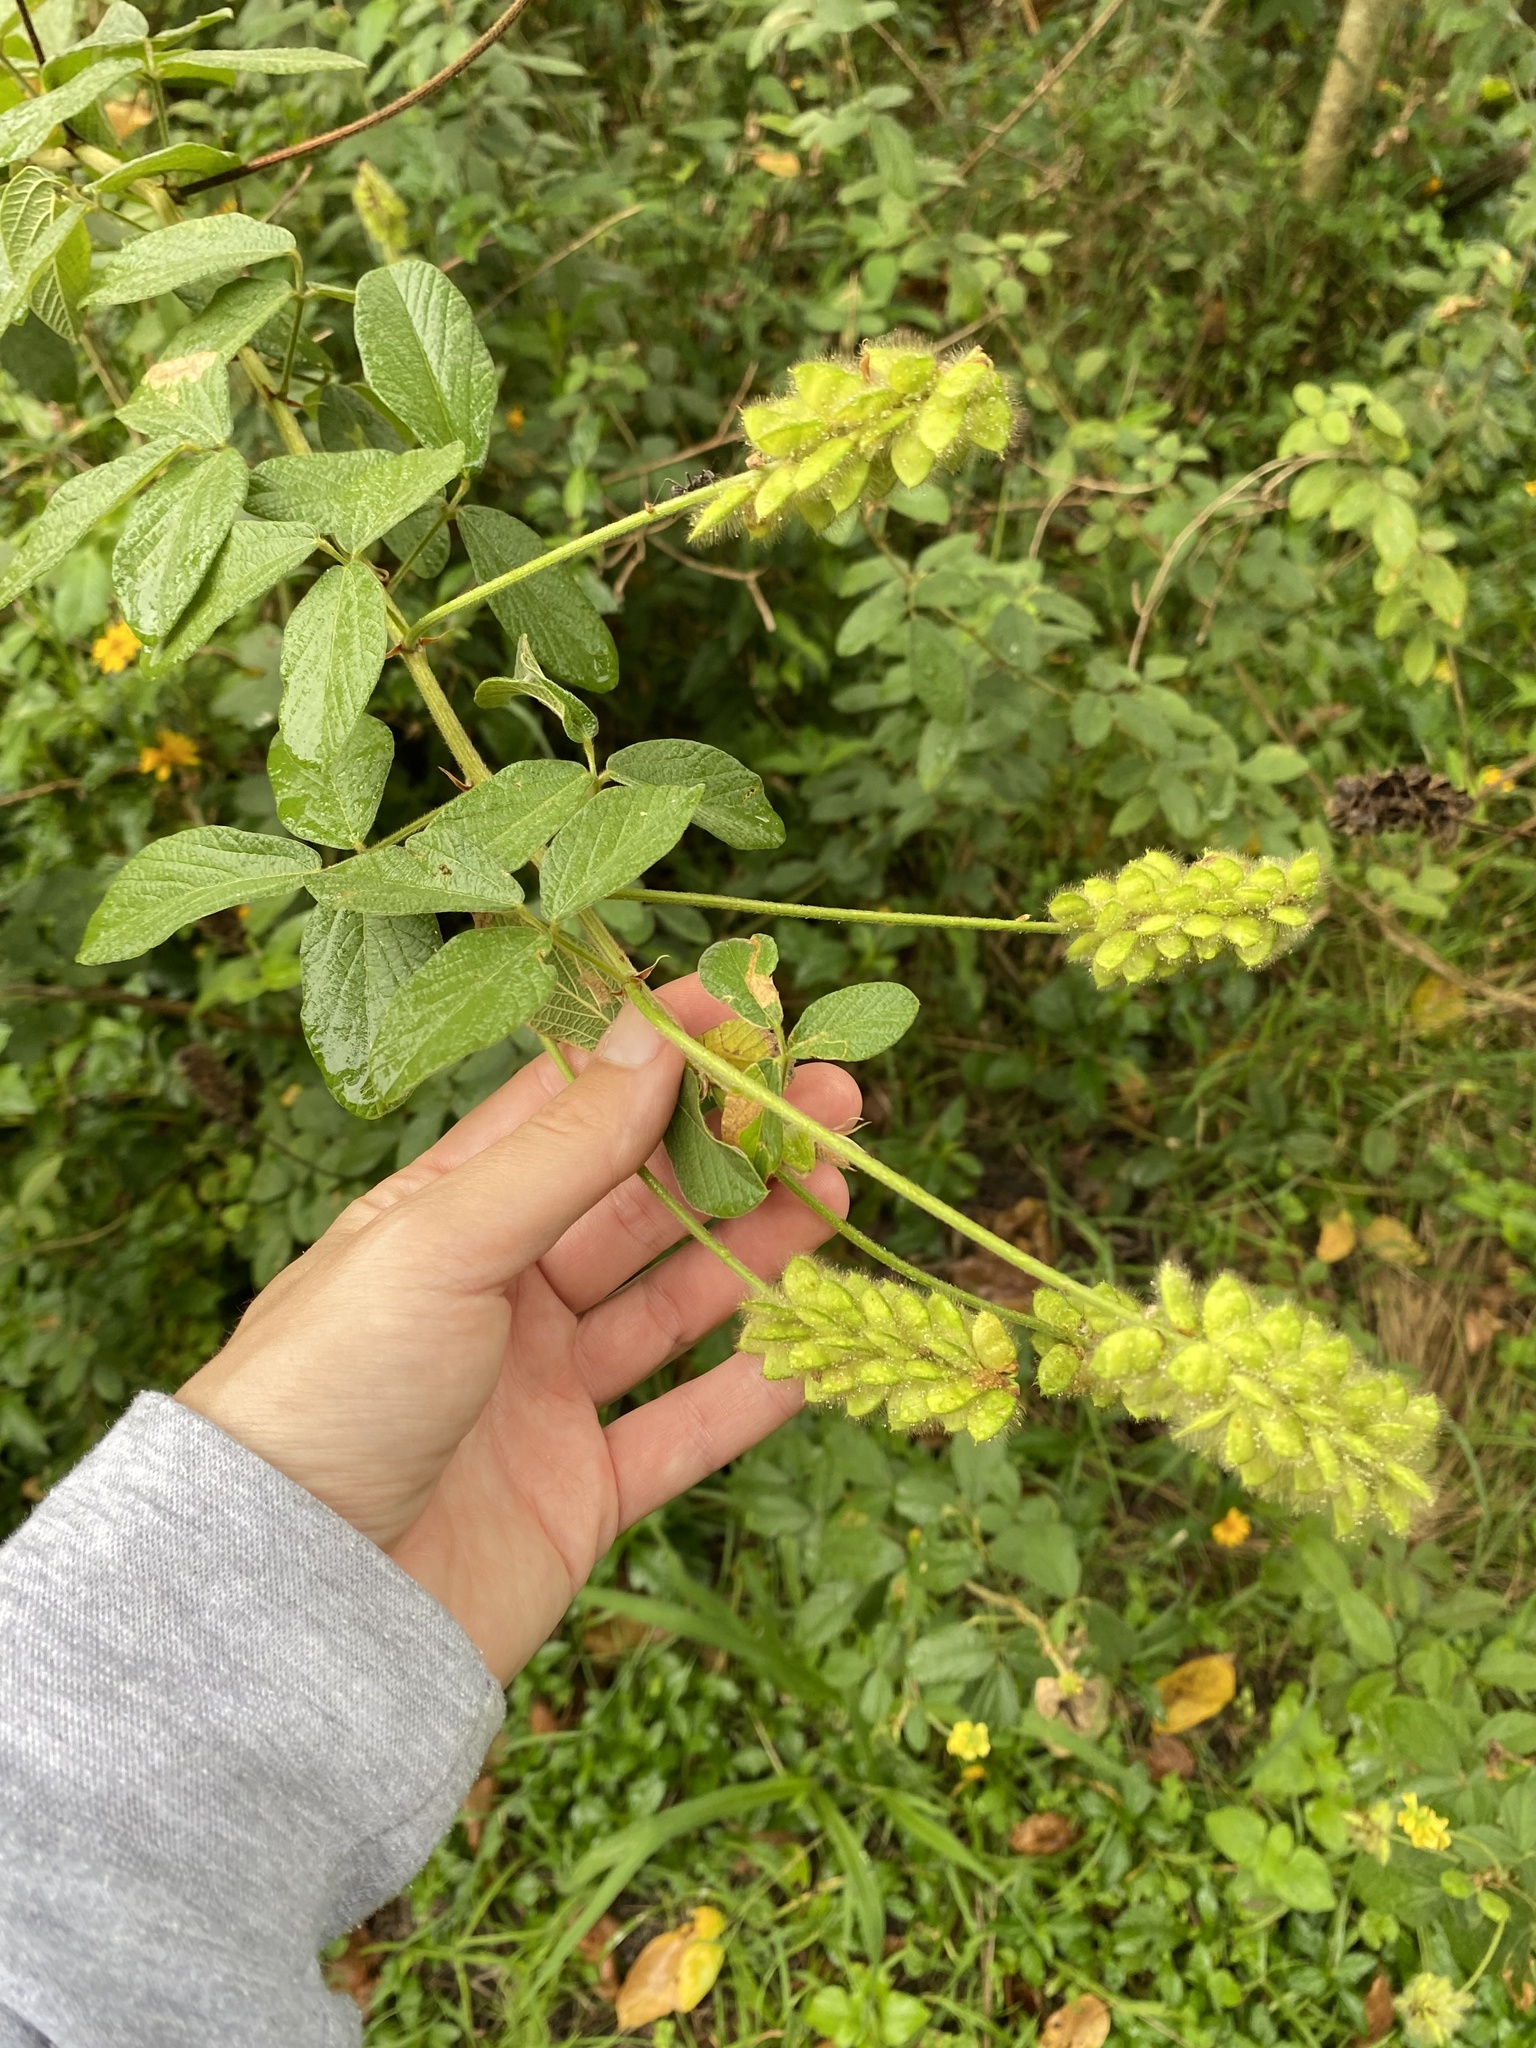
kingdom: Plantae
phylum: Tracheophyta
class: Magnoliopsida
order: Fabales
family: Fabaceae
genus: Eriosema
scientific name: Eriosema parviflorum
